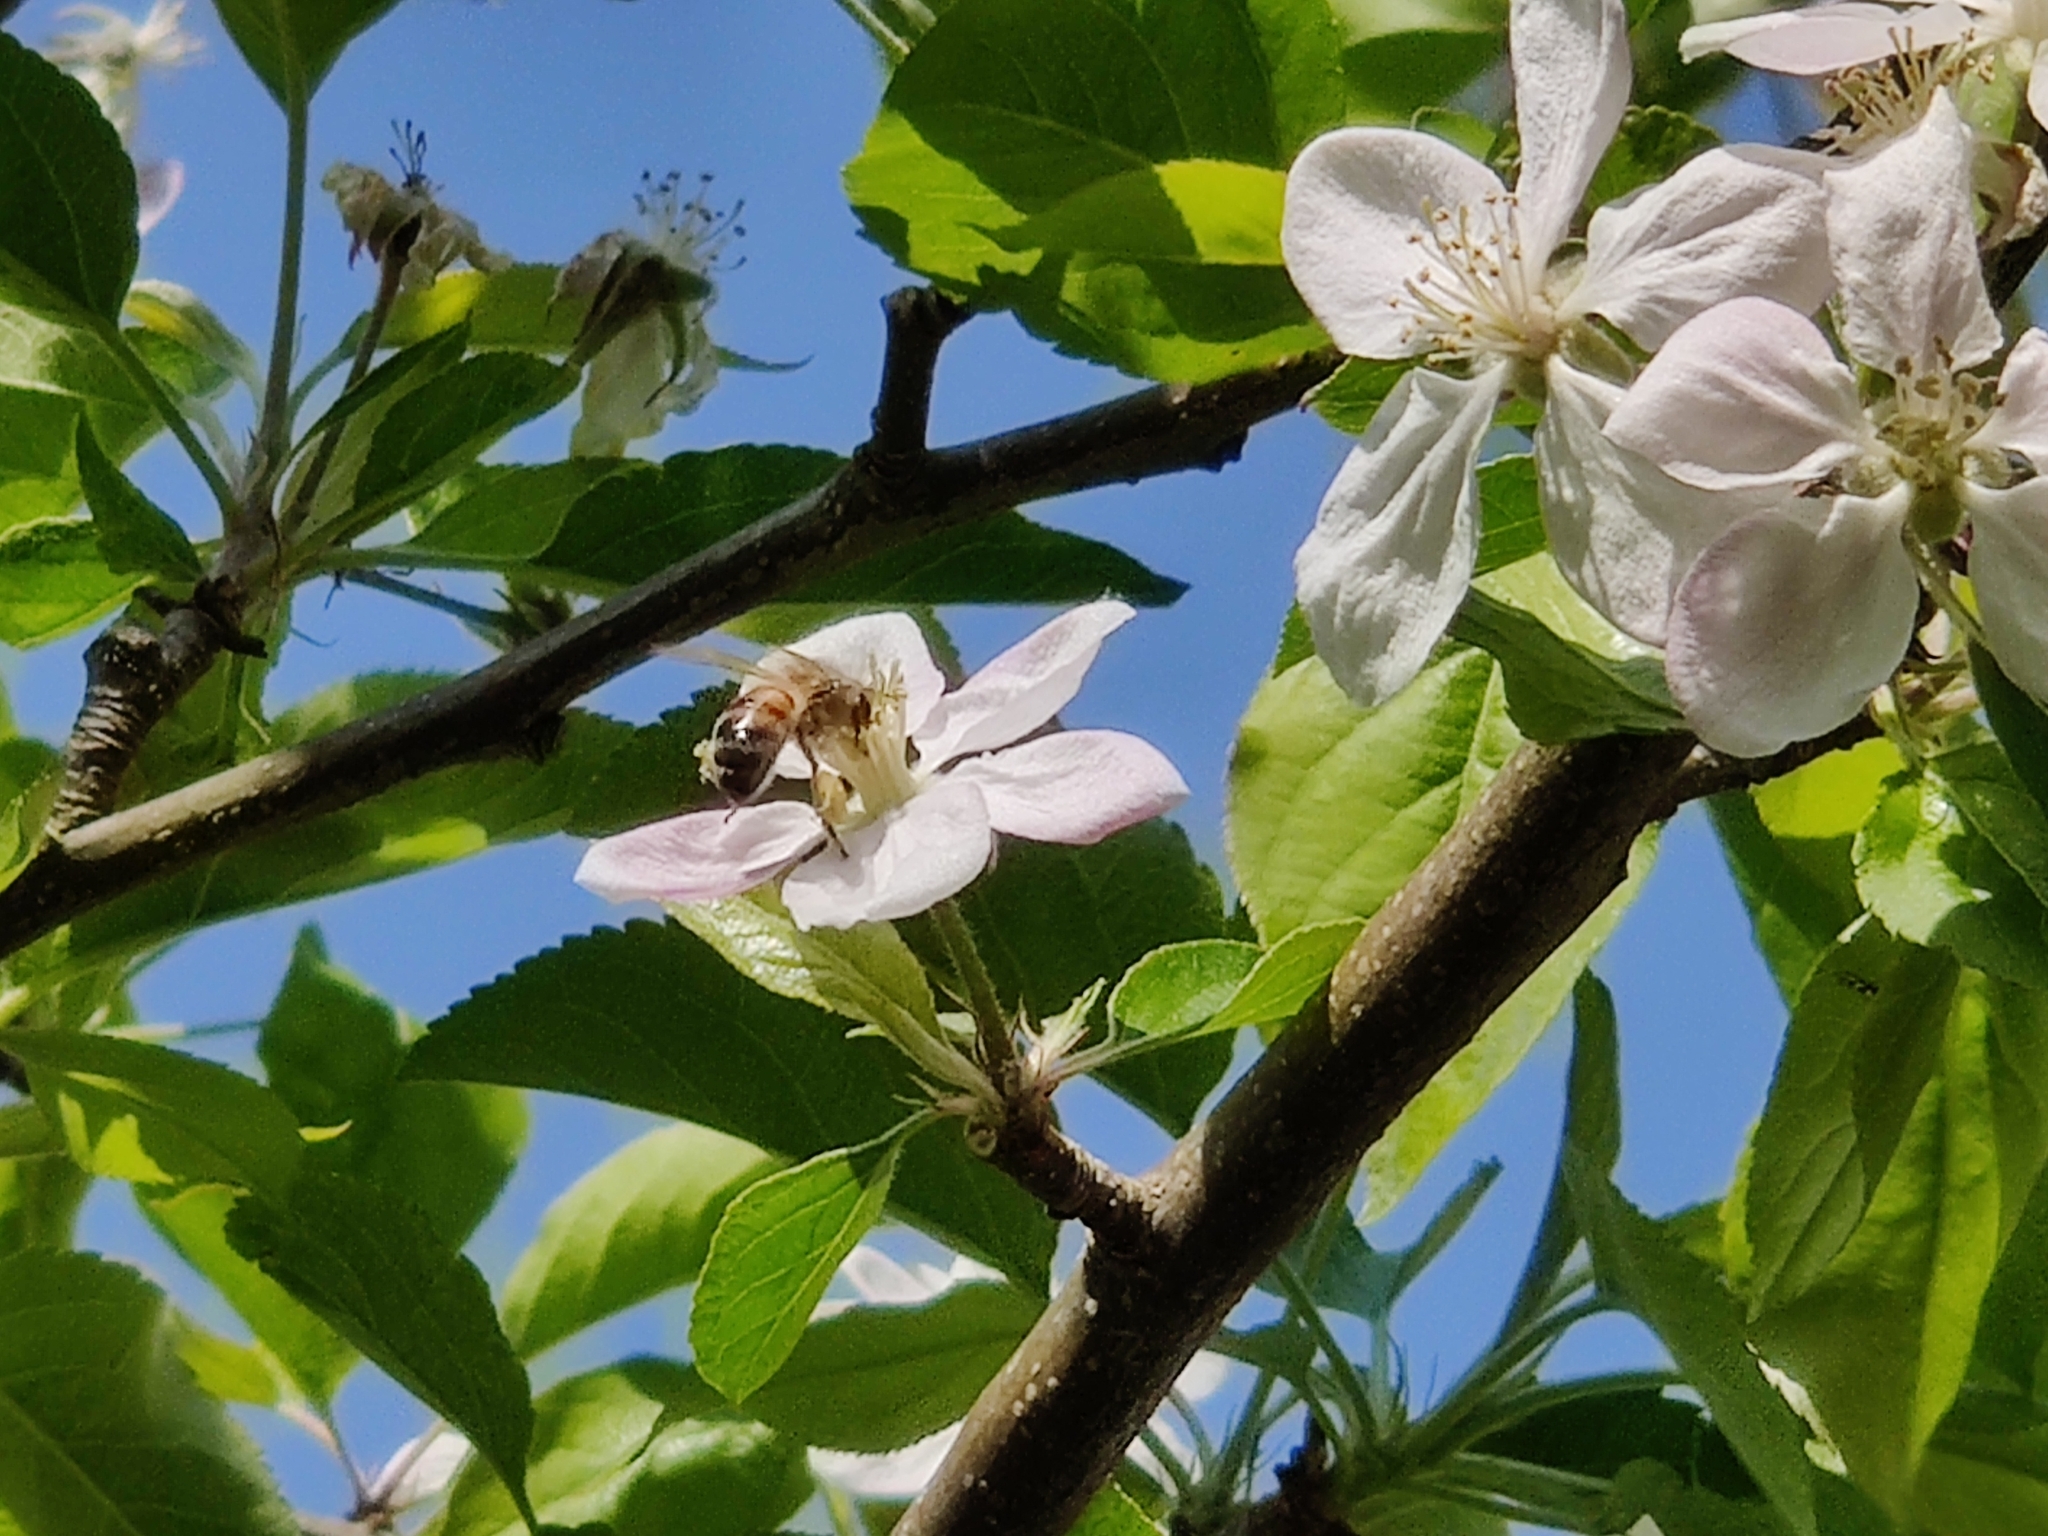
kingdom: Animalia
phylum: Arthropoda
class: Insecta
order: Hymenoptera
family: Apidae
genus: Apis
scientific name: Apis mellifera
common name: Honey bee
